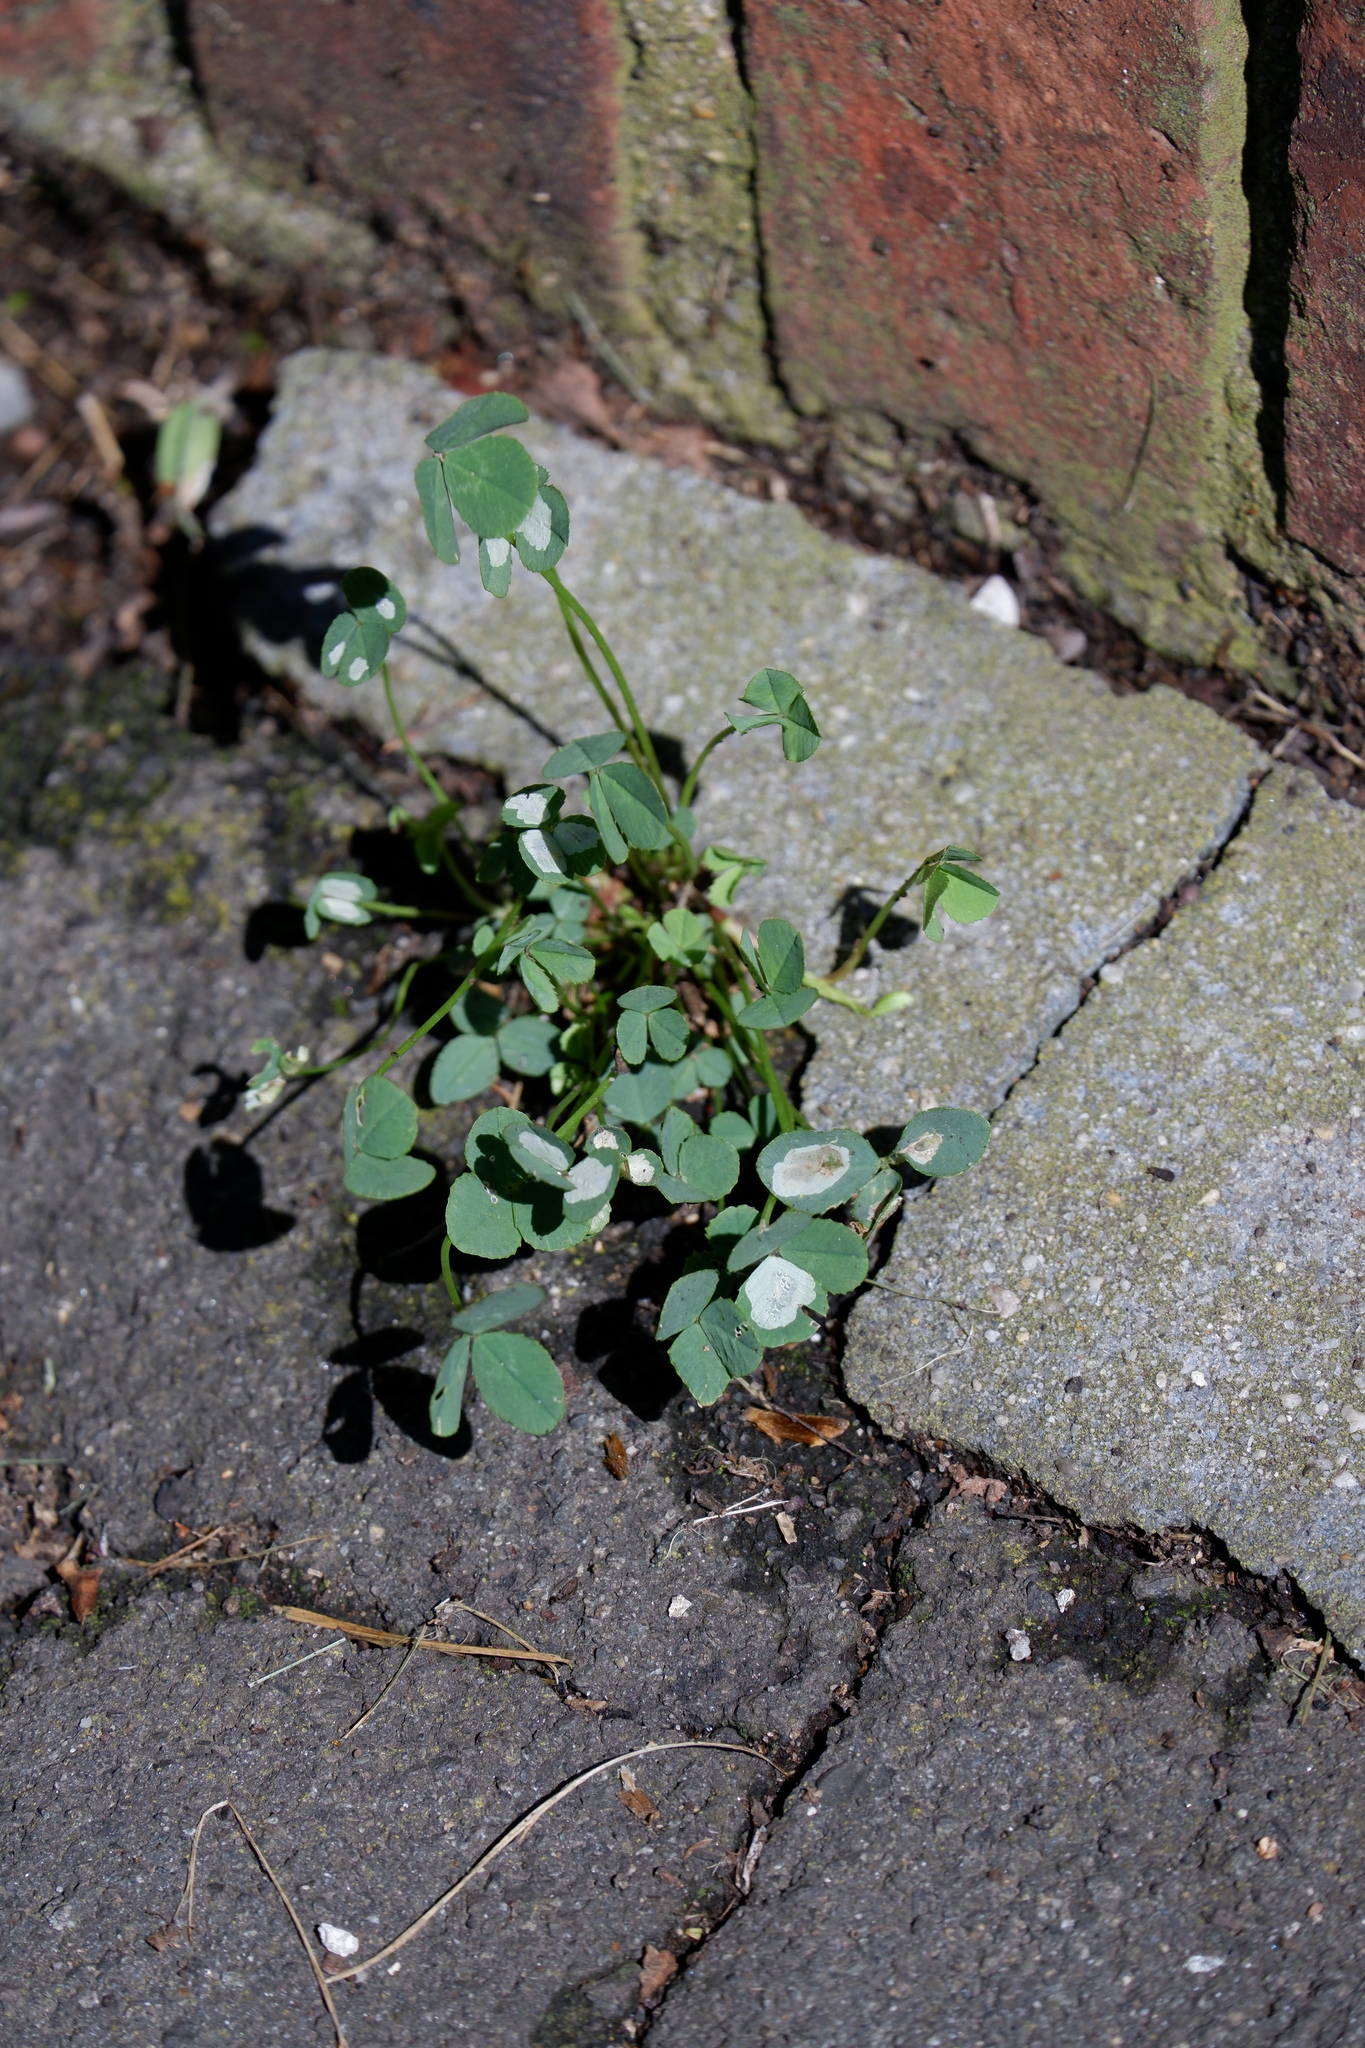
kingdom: Animalia
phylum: Arthropoda
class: Insecta
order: Lepidoptera
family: Gracillariidae
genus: Porphyrosela
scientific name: Porphyrosela minuta
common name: Leaf miner moth
